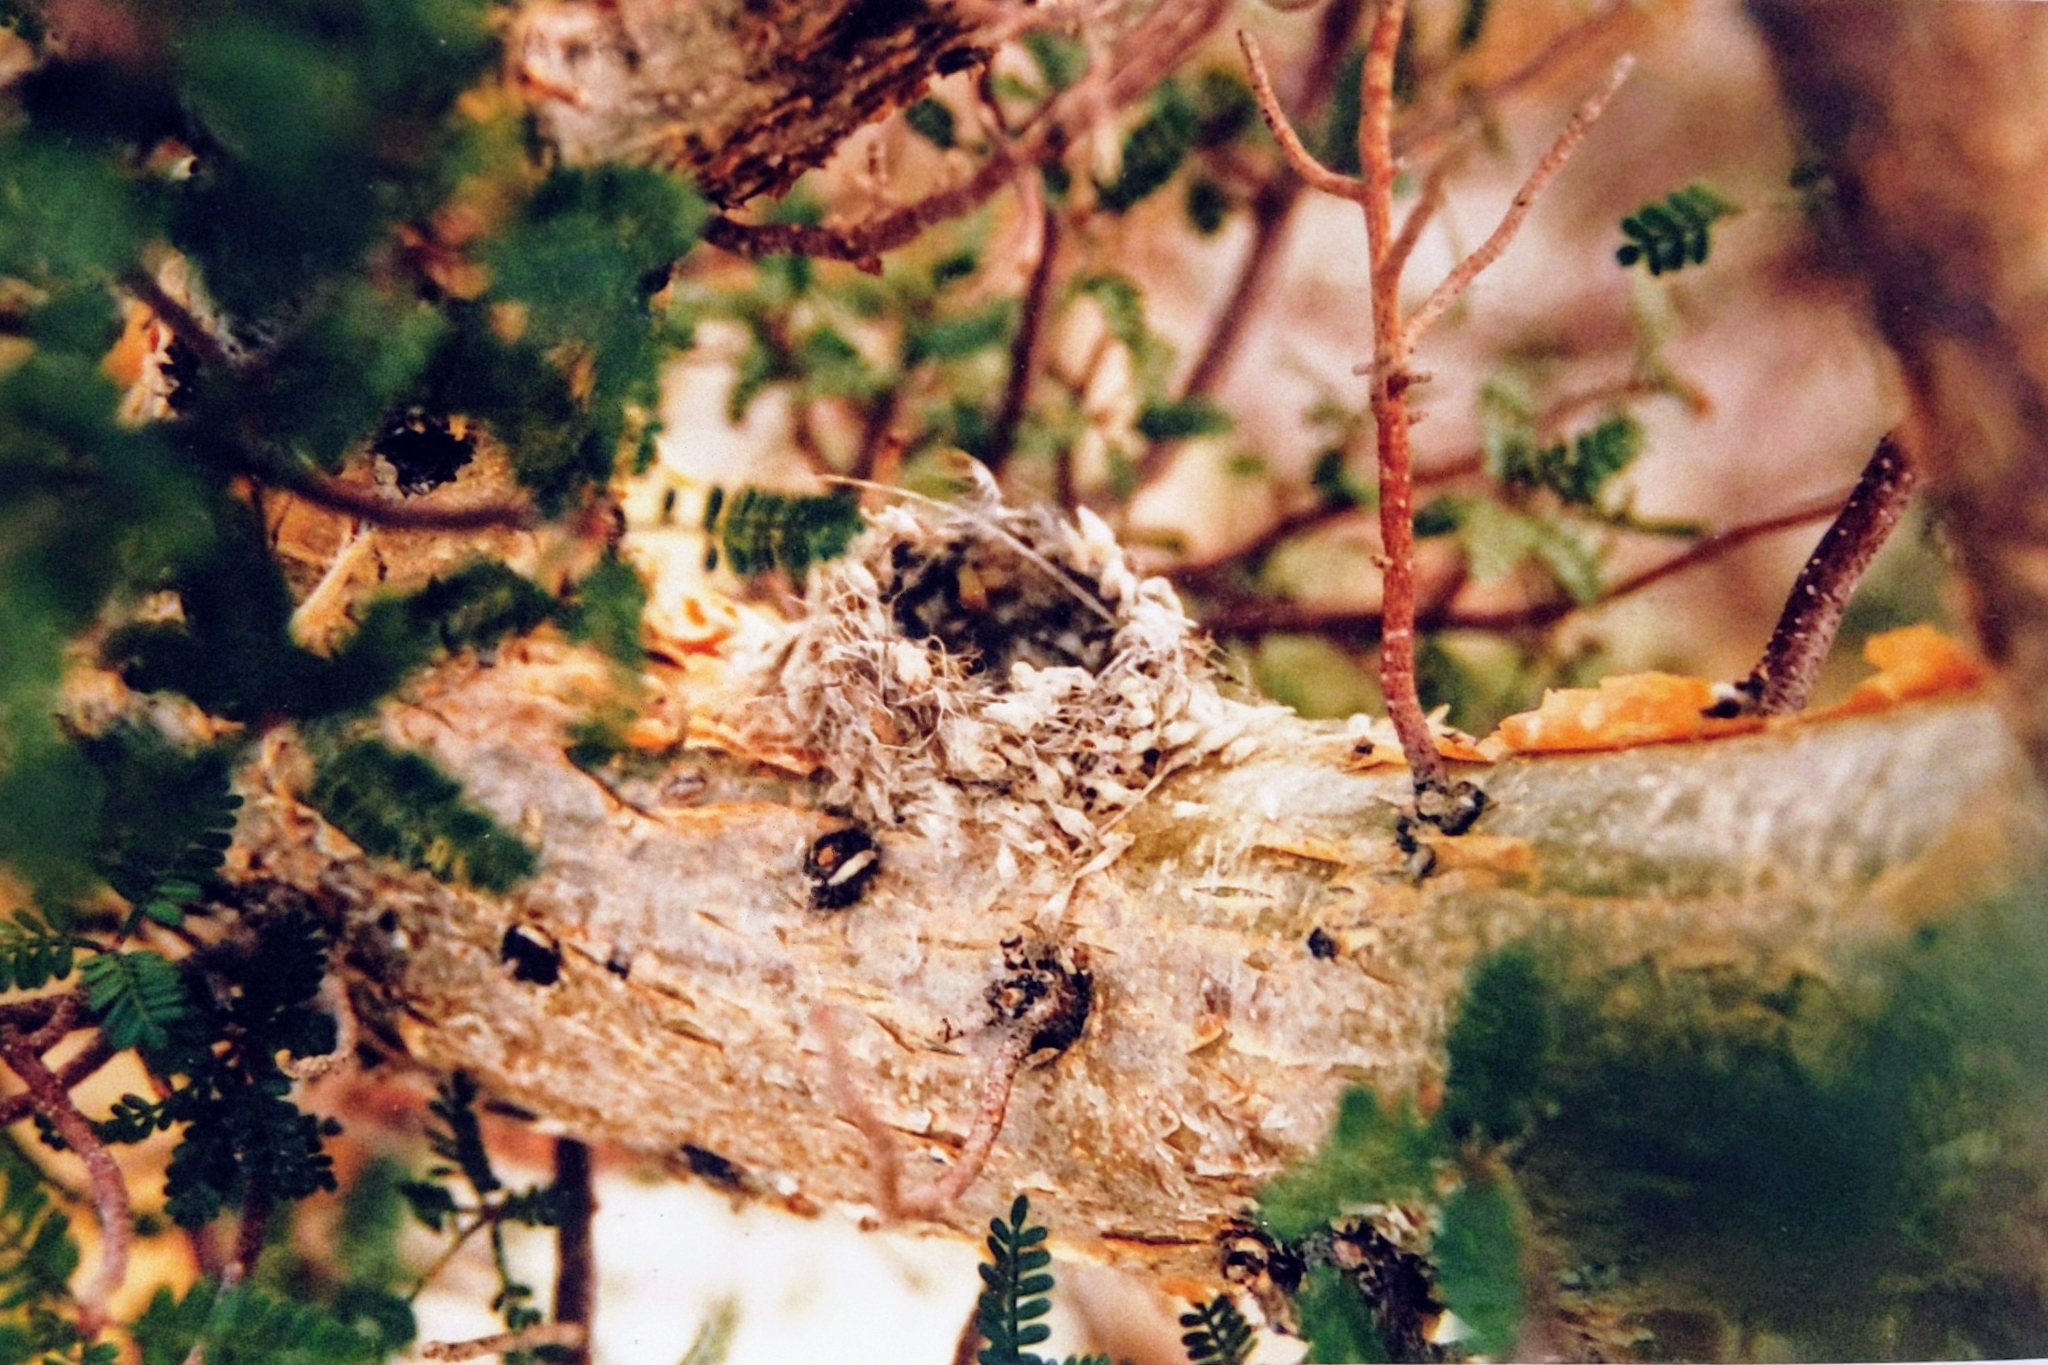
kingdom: Plantae
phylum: Tracheophyta
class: Magnoliopsida
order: Sapindales
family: Burseraceae
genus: Bursera
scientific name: Bursera microphylla
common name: Elephant tree
